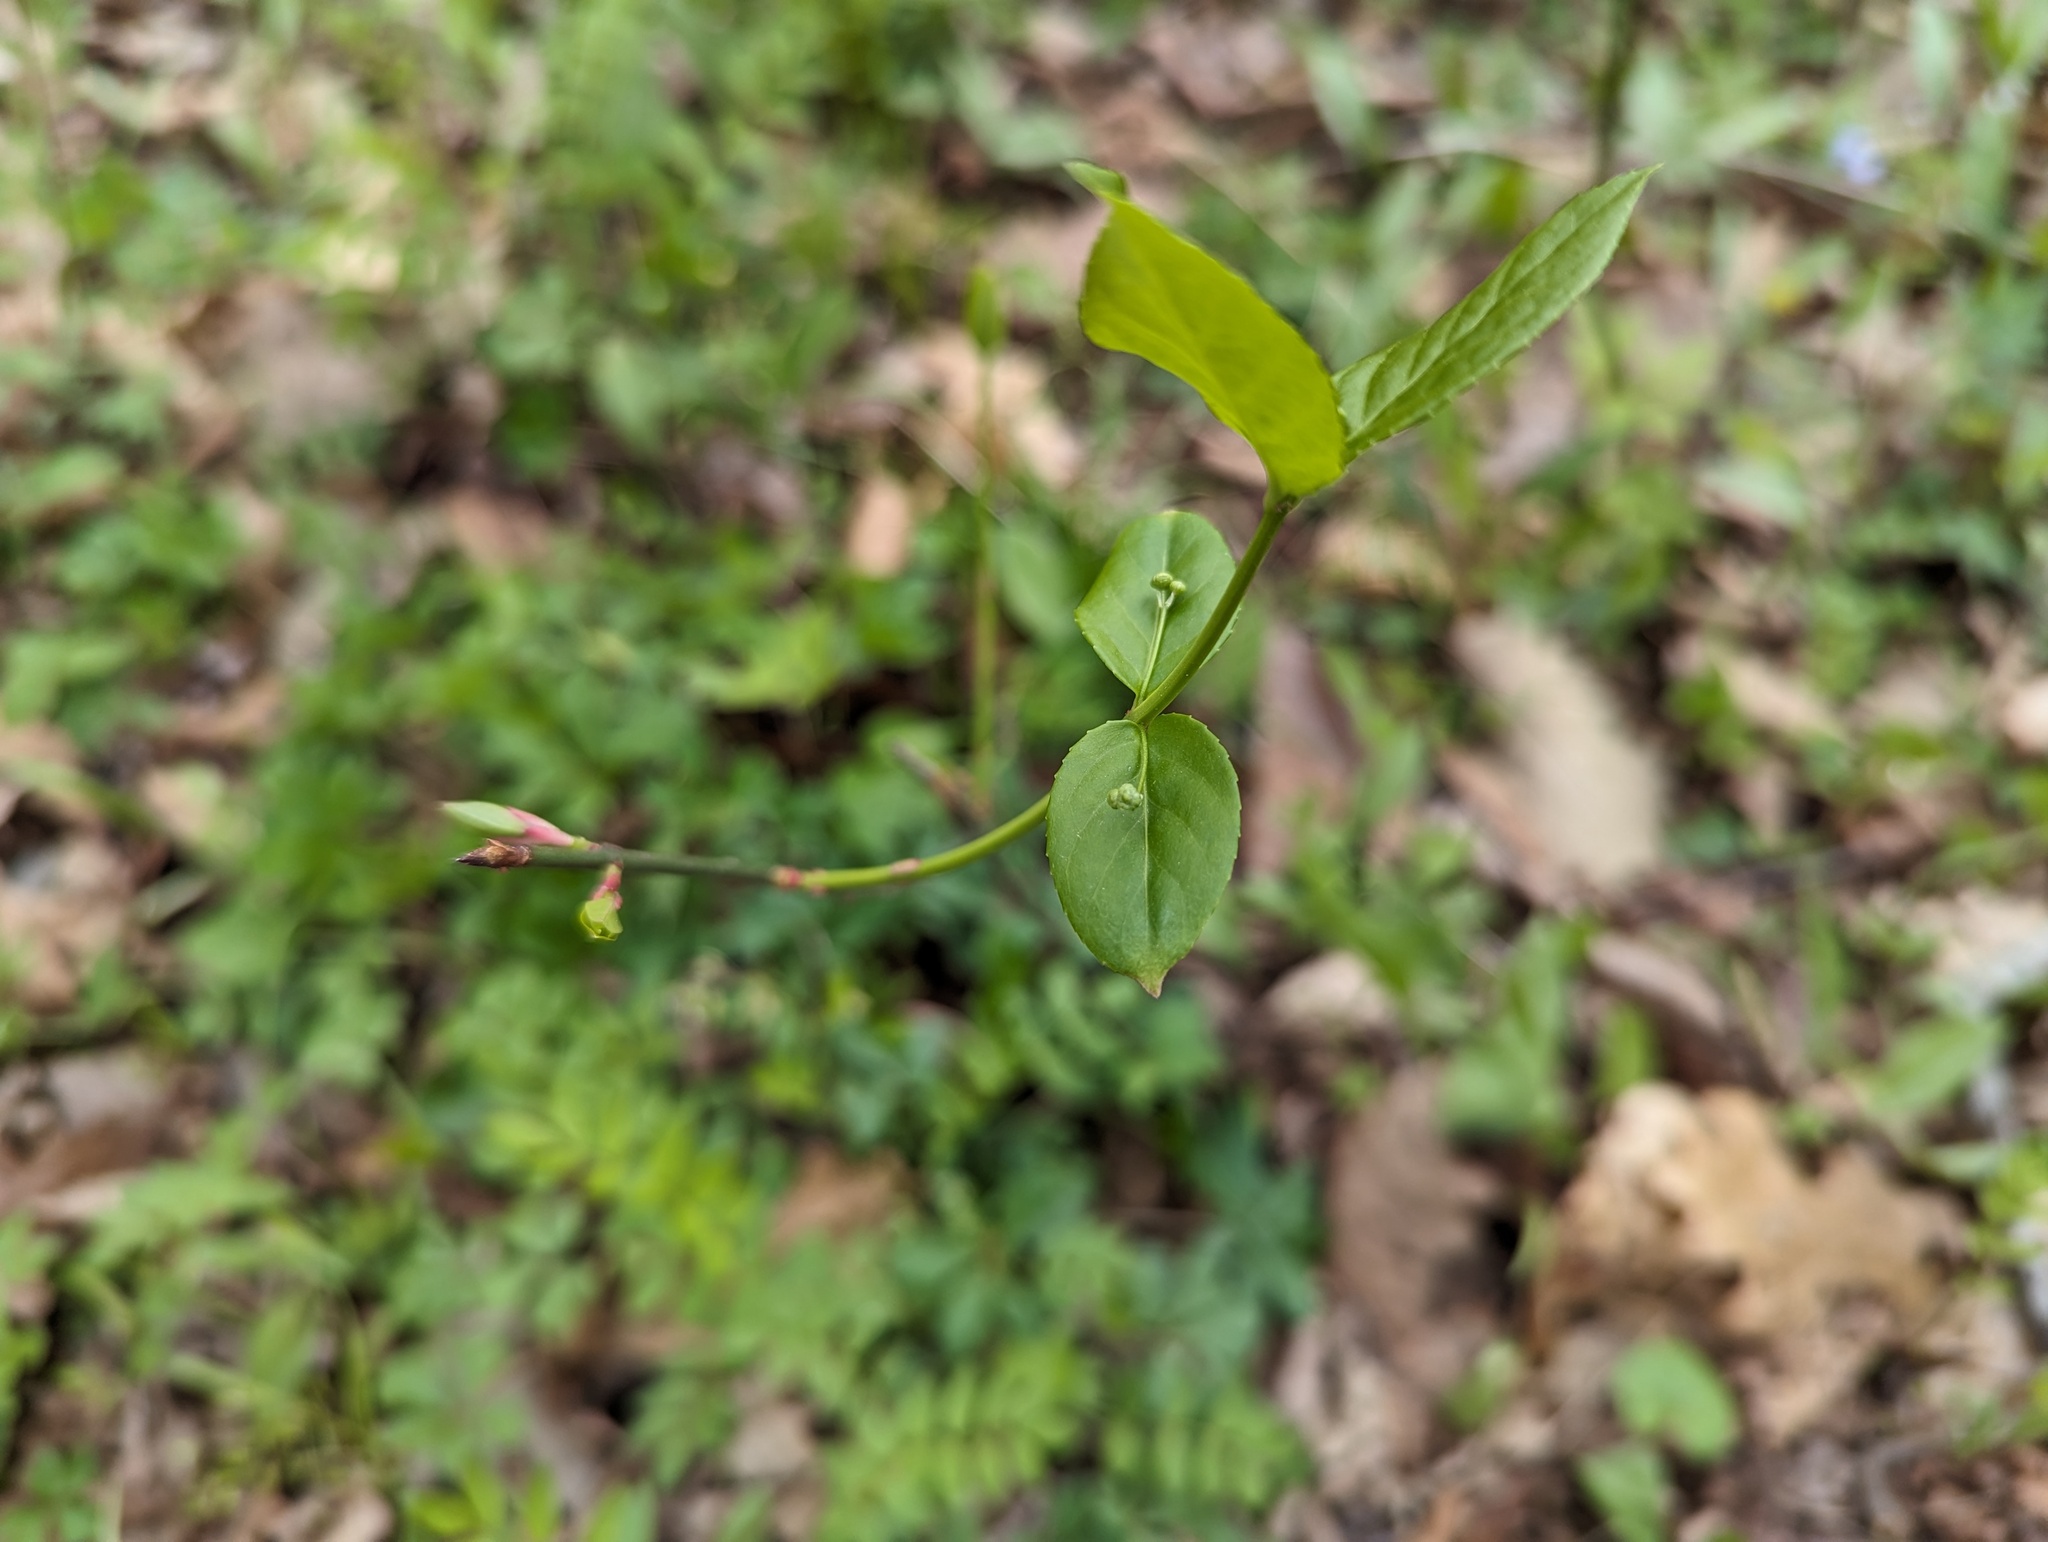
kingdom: Plantae
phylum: Tracheophyta
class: Magnoliopsida
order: Celastrales
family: Celastraceae
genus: Euonymus
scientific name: Euonymus americanus
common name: Bursting-heart
